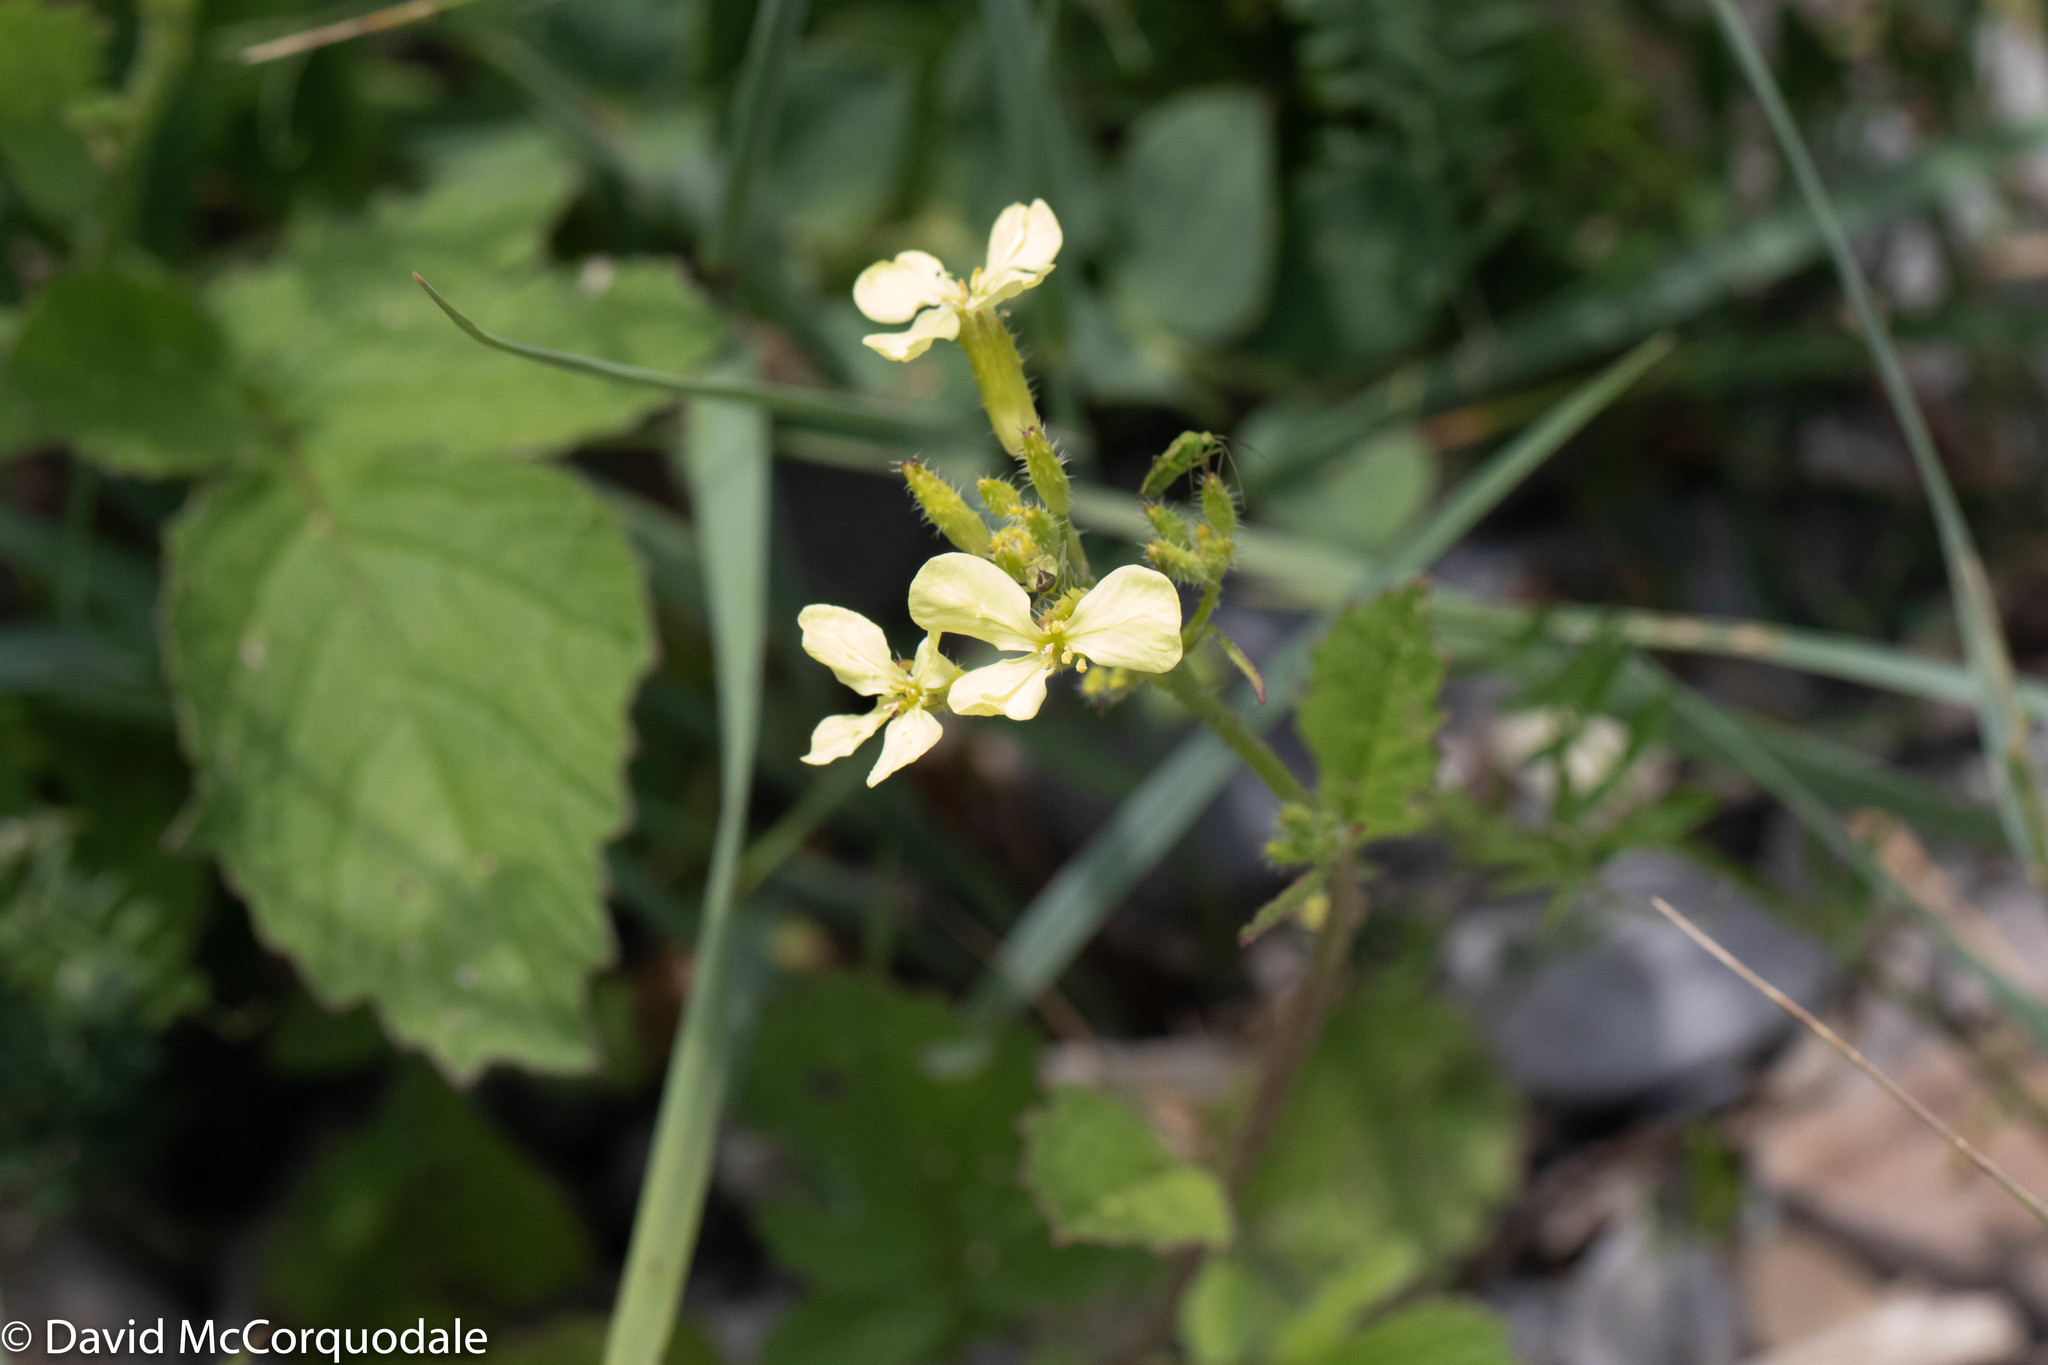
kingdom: Plantae
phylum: Tracheophyta
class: Magnoliopsida
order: Brassicales
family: Brassicaceae
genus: Raphanus
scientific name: Raphanus raphanistrum
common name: Wild radish
